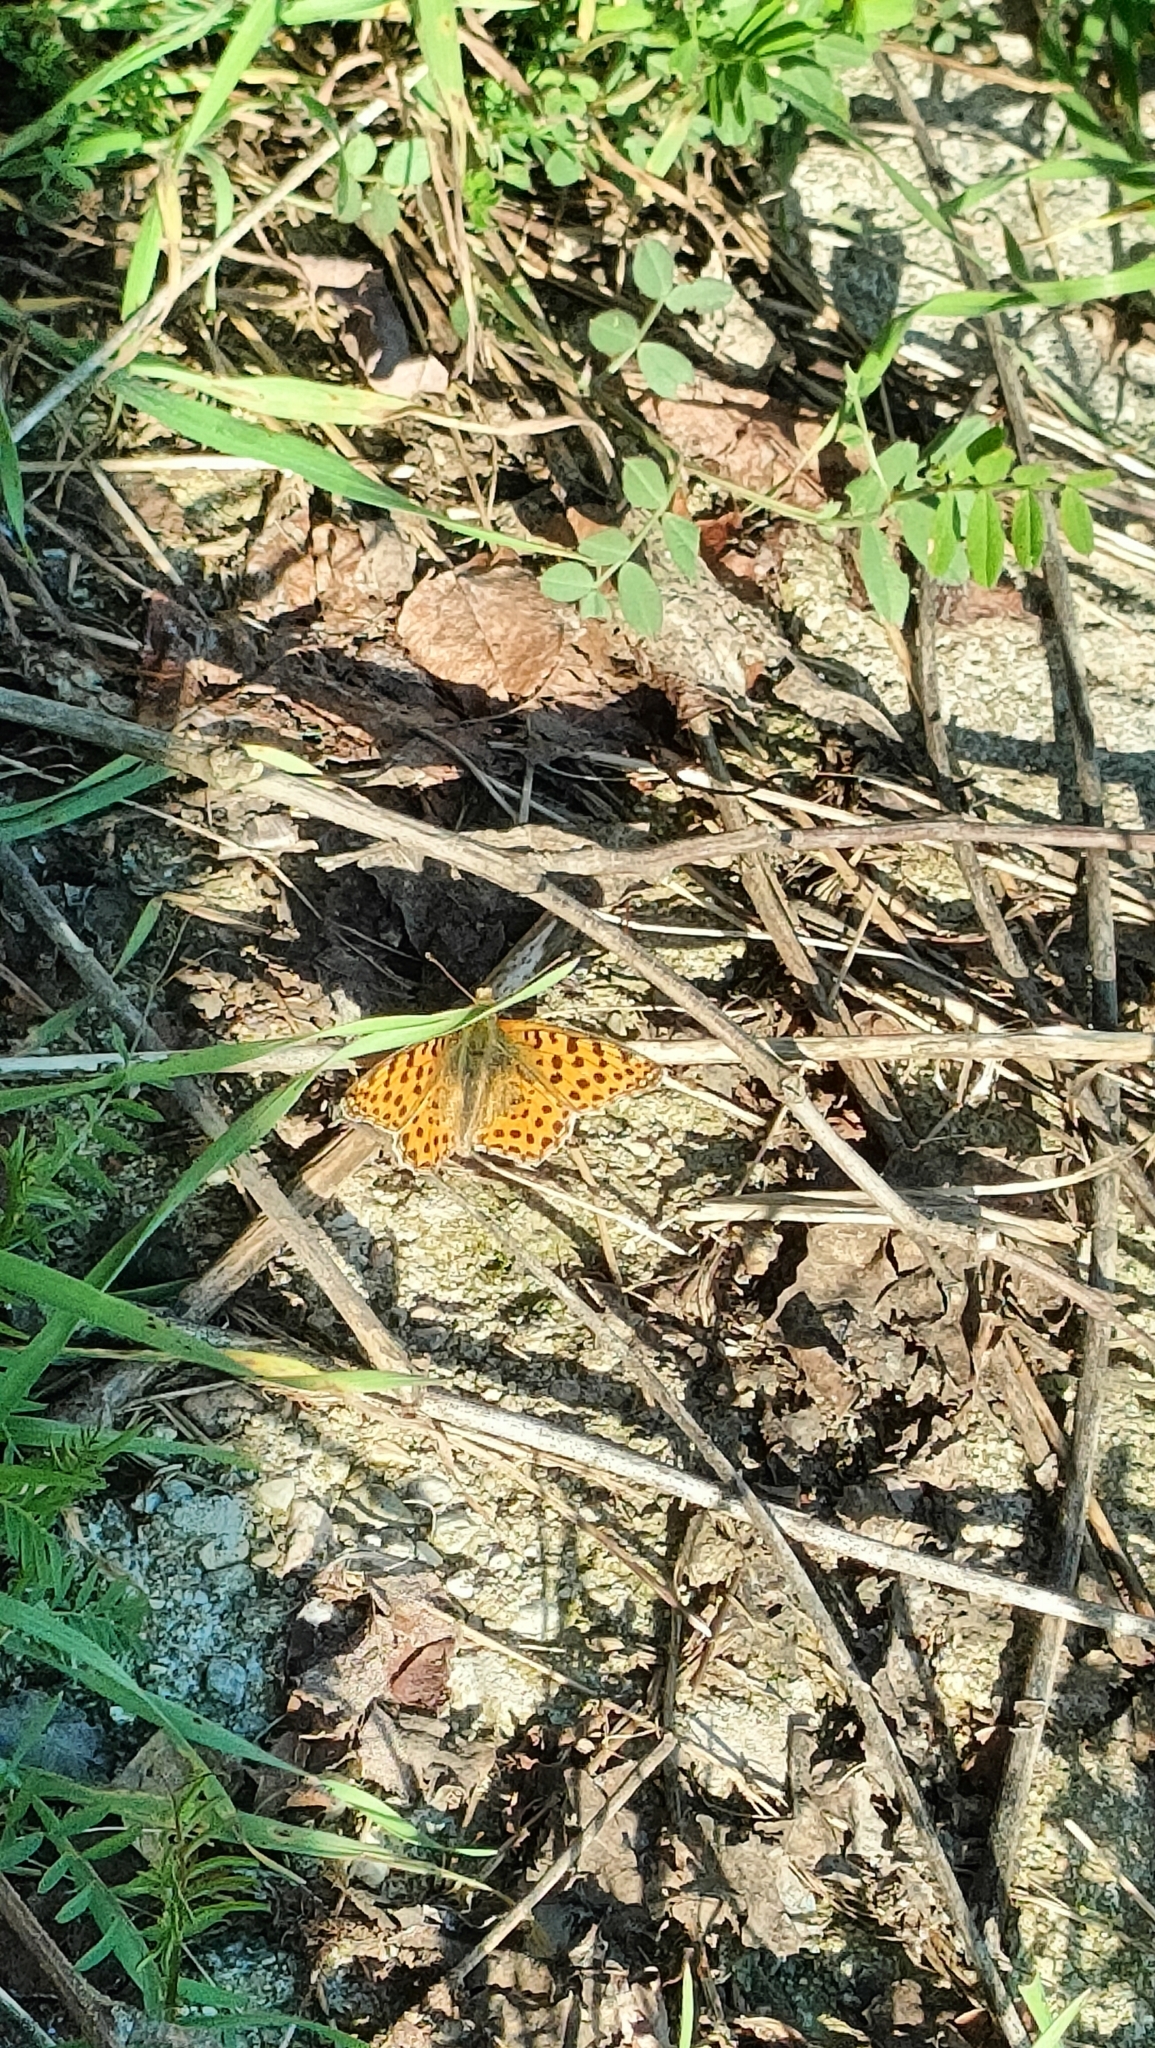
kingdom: Animalia
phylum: Arthropoda
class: Insecta
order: Lepidoptera
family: Nymphalidae
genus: Issoria
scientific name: Issoria lathonia
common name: Queen of spain fritillary
